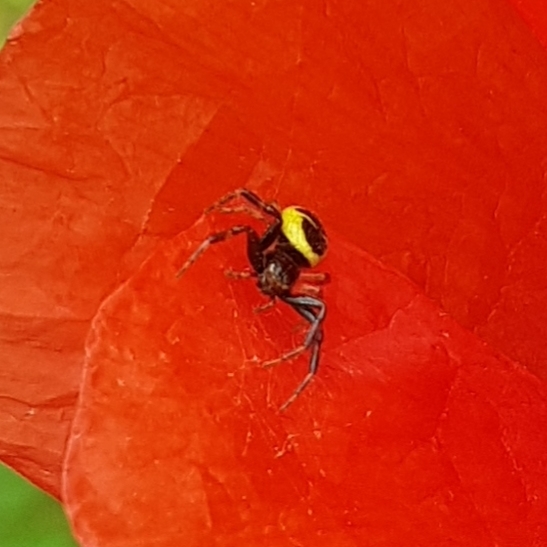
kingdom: Animalia
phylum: Arthropoda
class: Arachnida
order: Araneae
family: Thomisidae
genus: Synema
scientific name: Synema globosum
